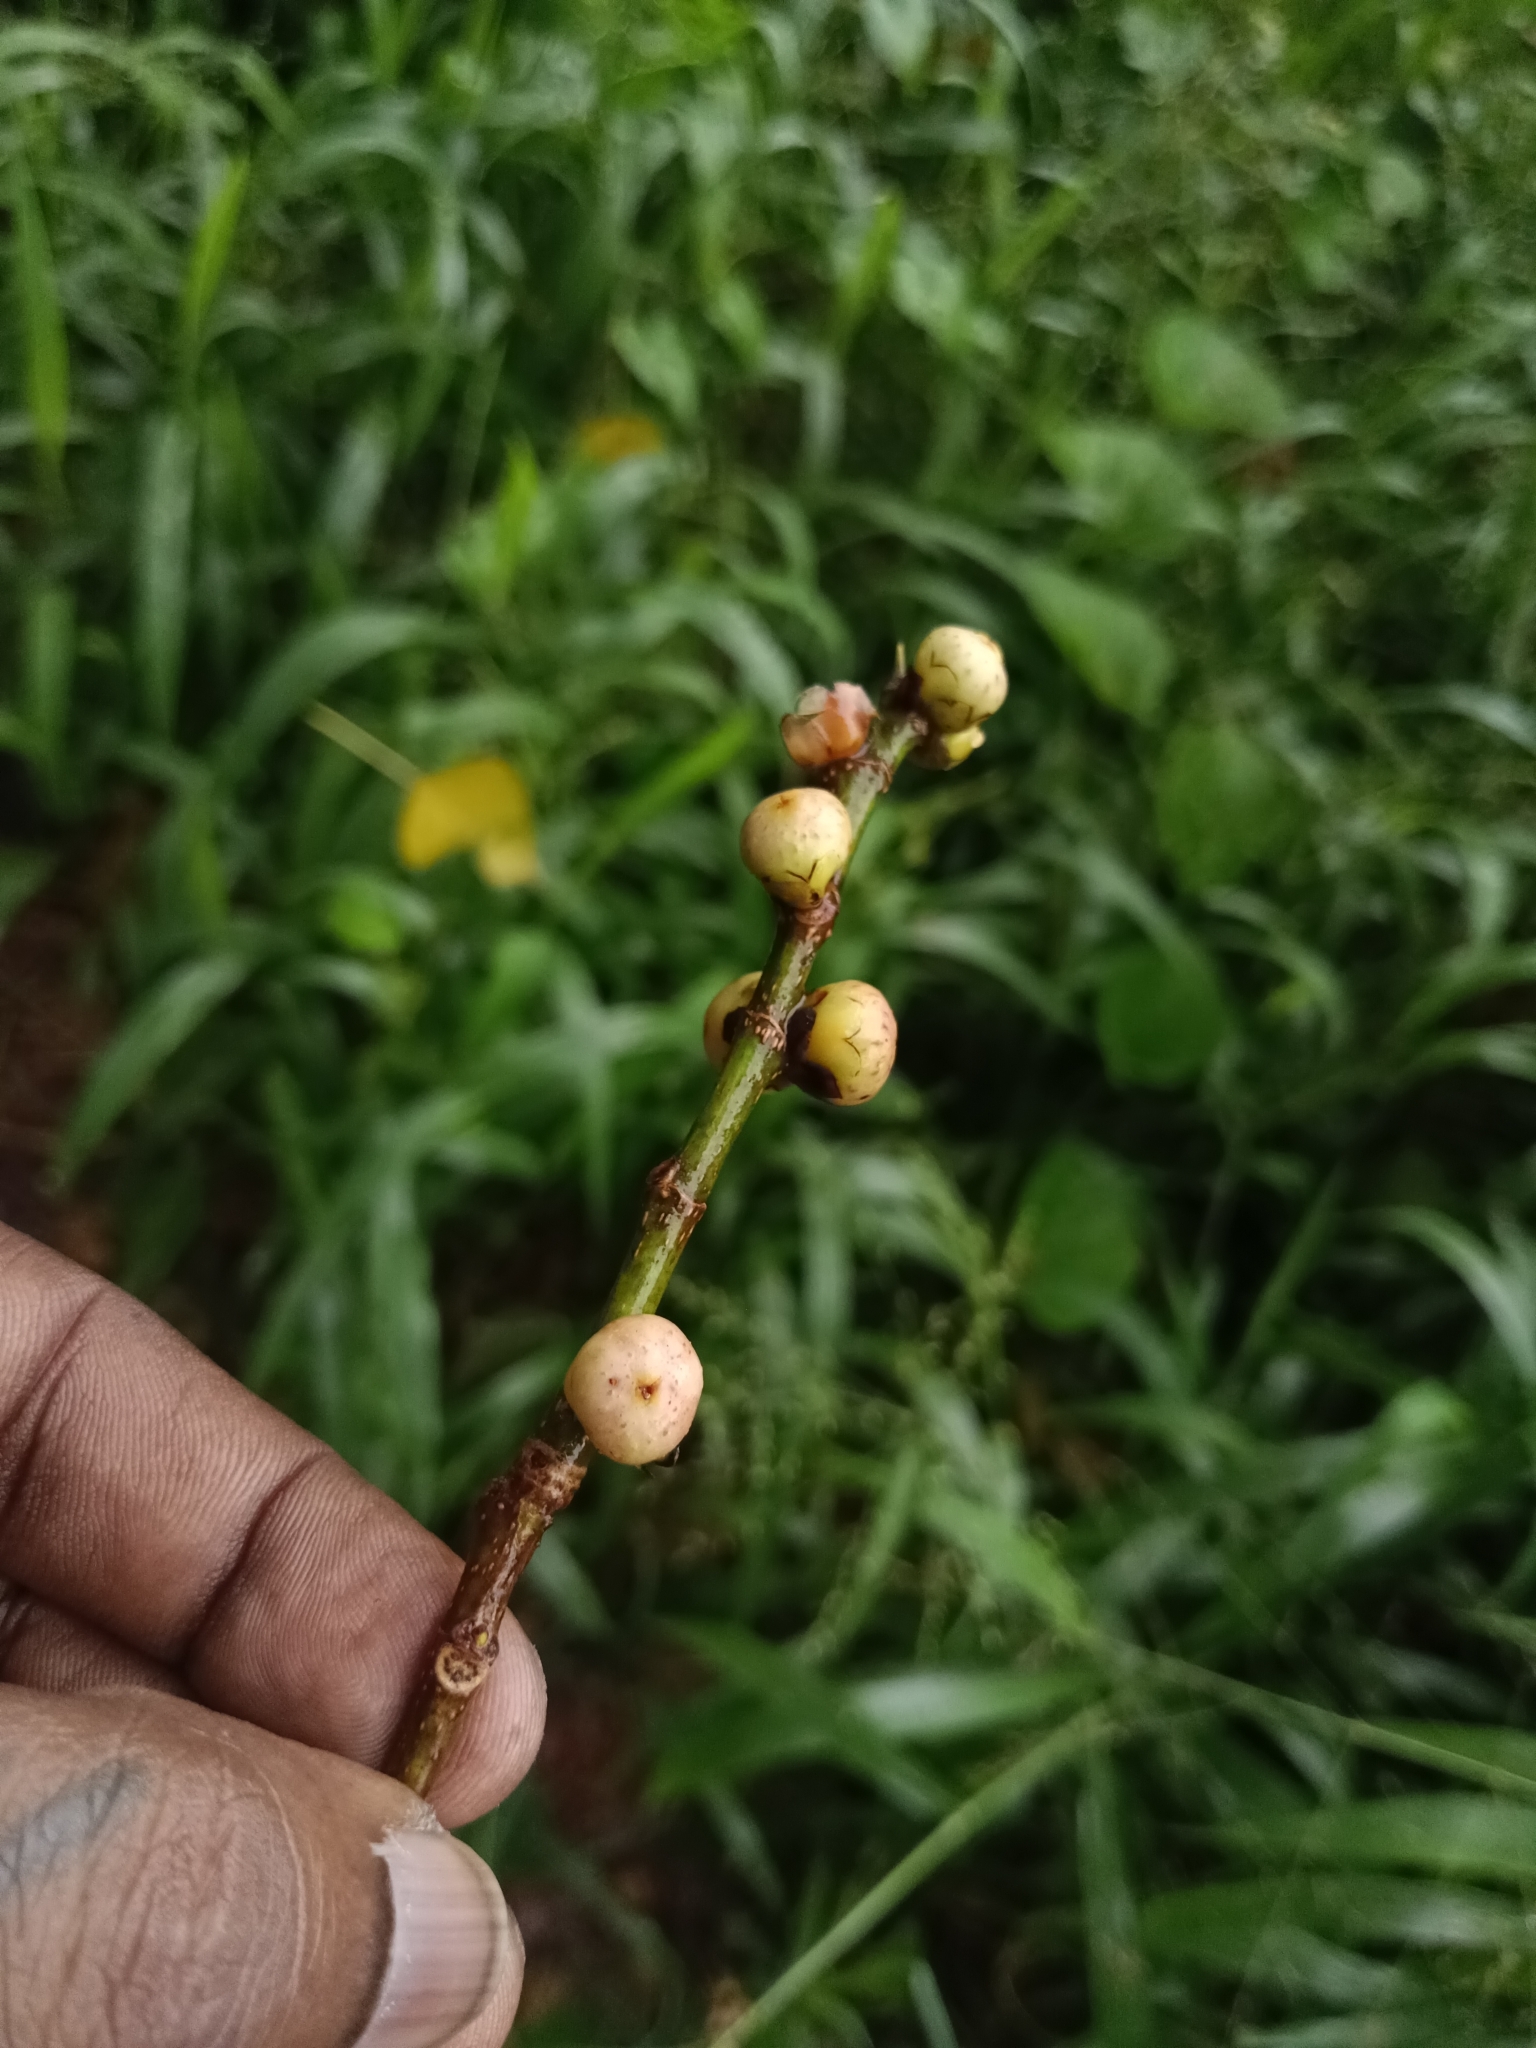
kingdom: Plantae
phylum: Tracheophyta
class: Magnoliopsida
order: Rosales
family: Moraceae
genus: Ficus
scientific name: Ficus religiosa
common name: Bodhi tree
